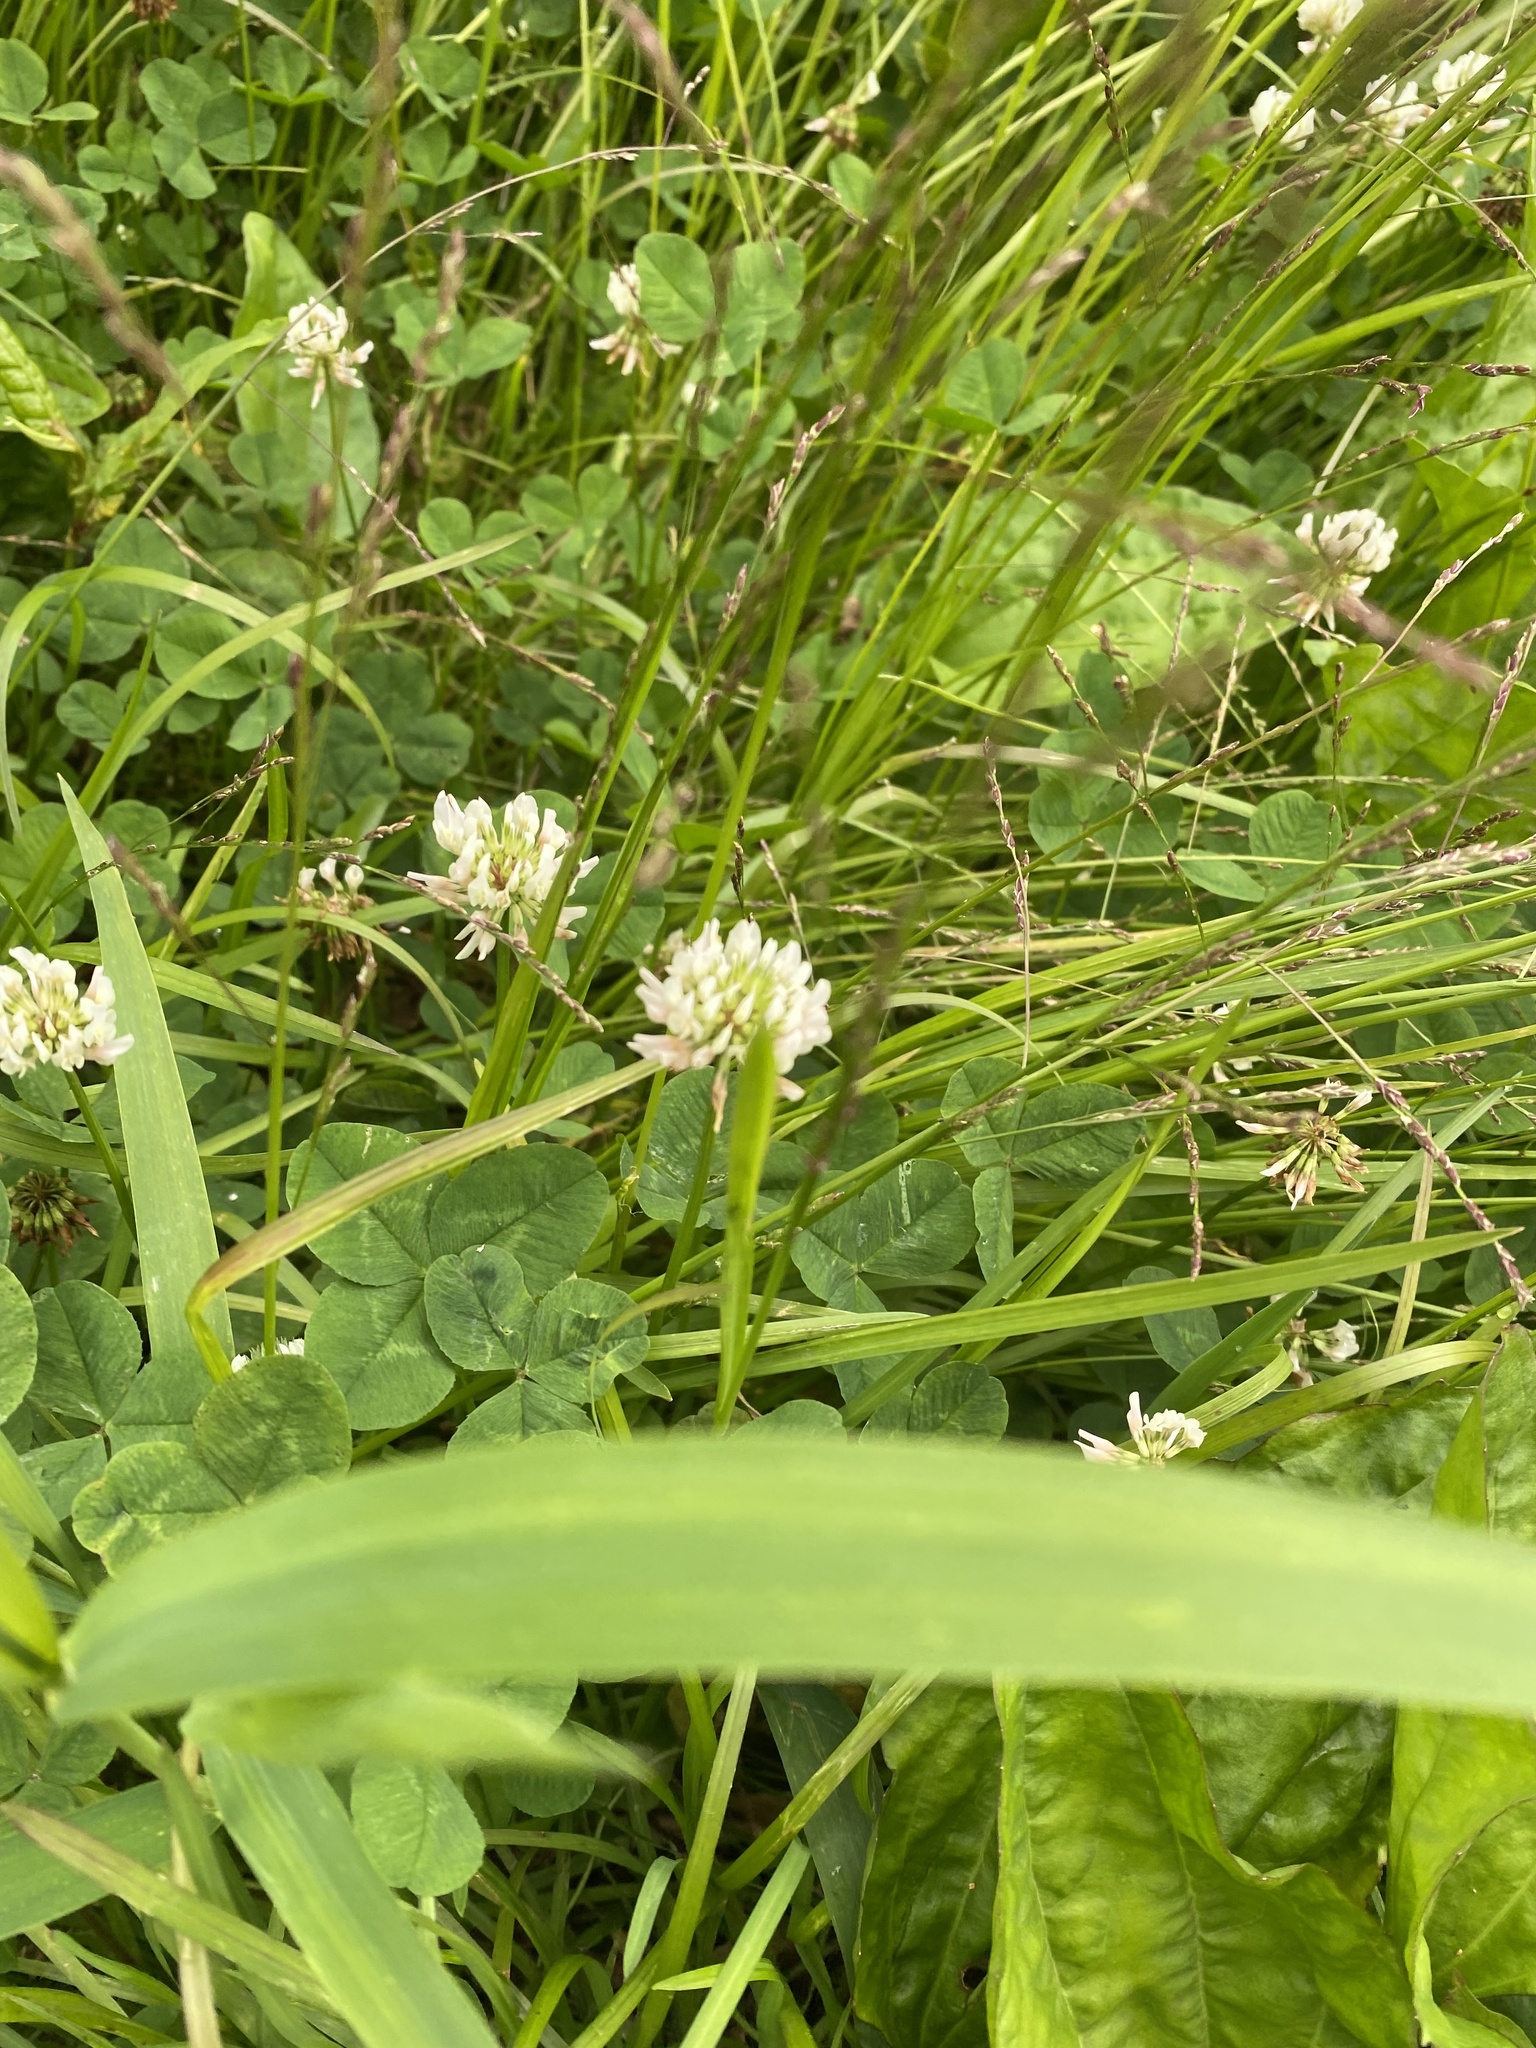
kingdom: Plantae
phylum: Tracheophyta
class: Magnoliopsida
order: Fabales
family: Fabaceae
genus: Trifolium
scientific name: Trifolium repens
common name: White clover
